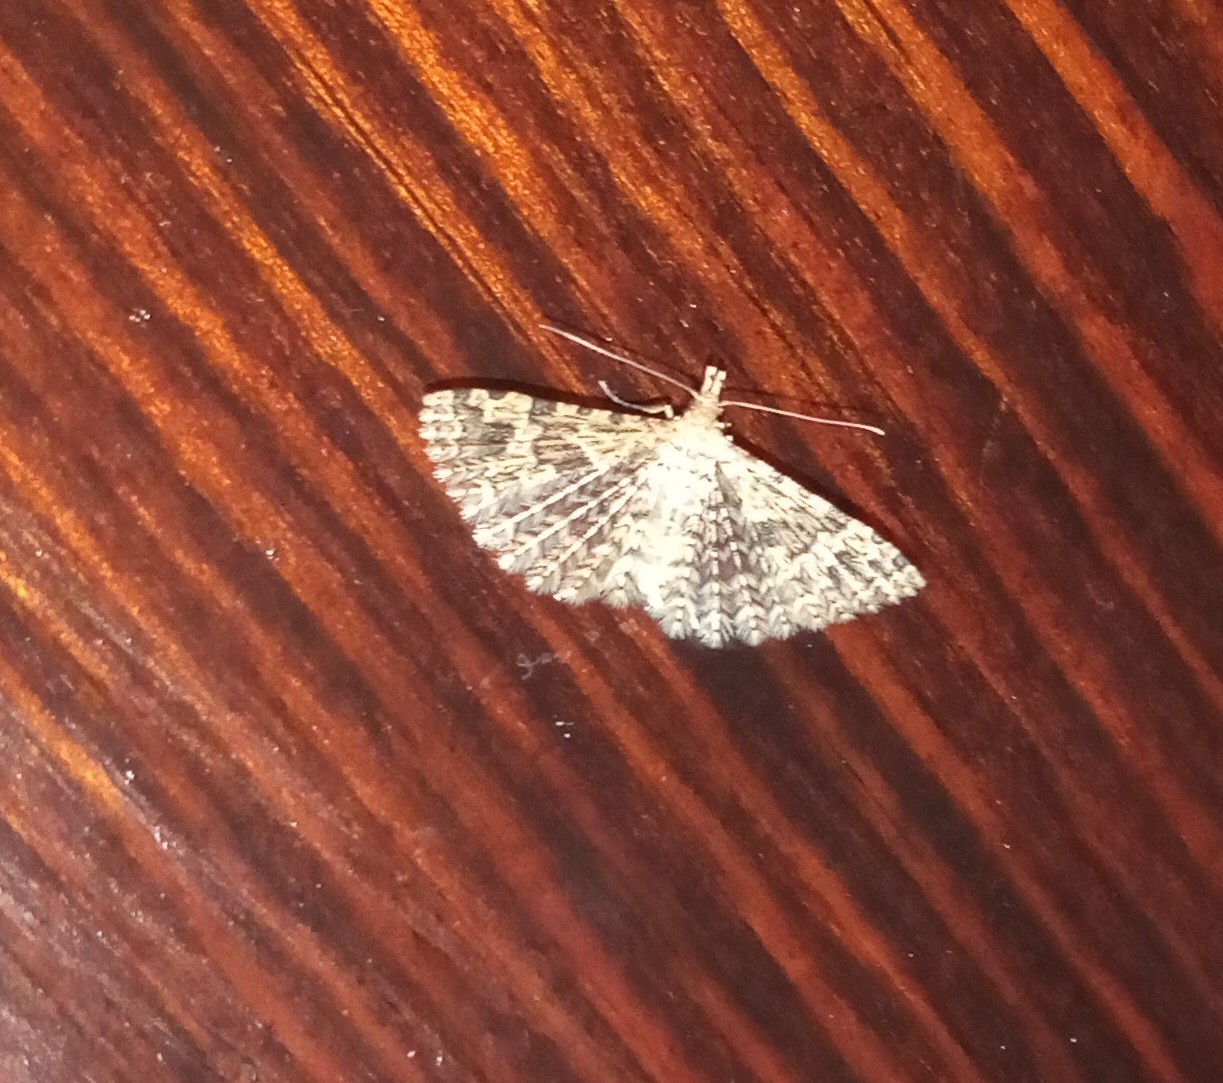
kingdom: Animalia
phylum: Arthropoda
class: Insecta
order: Lepidoptera
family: Alucitidae
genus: Alucita
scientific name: Alucita hexadactyla
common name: Twenty-plume moth
